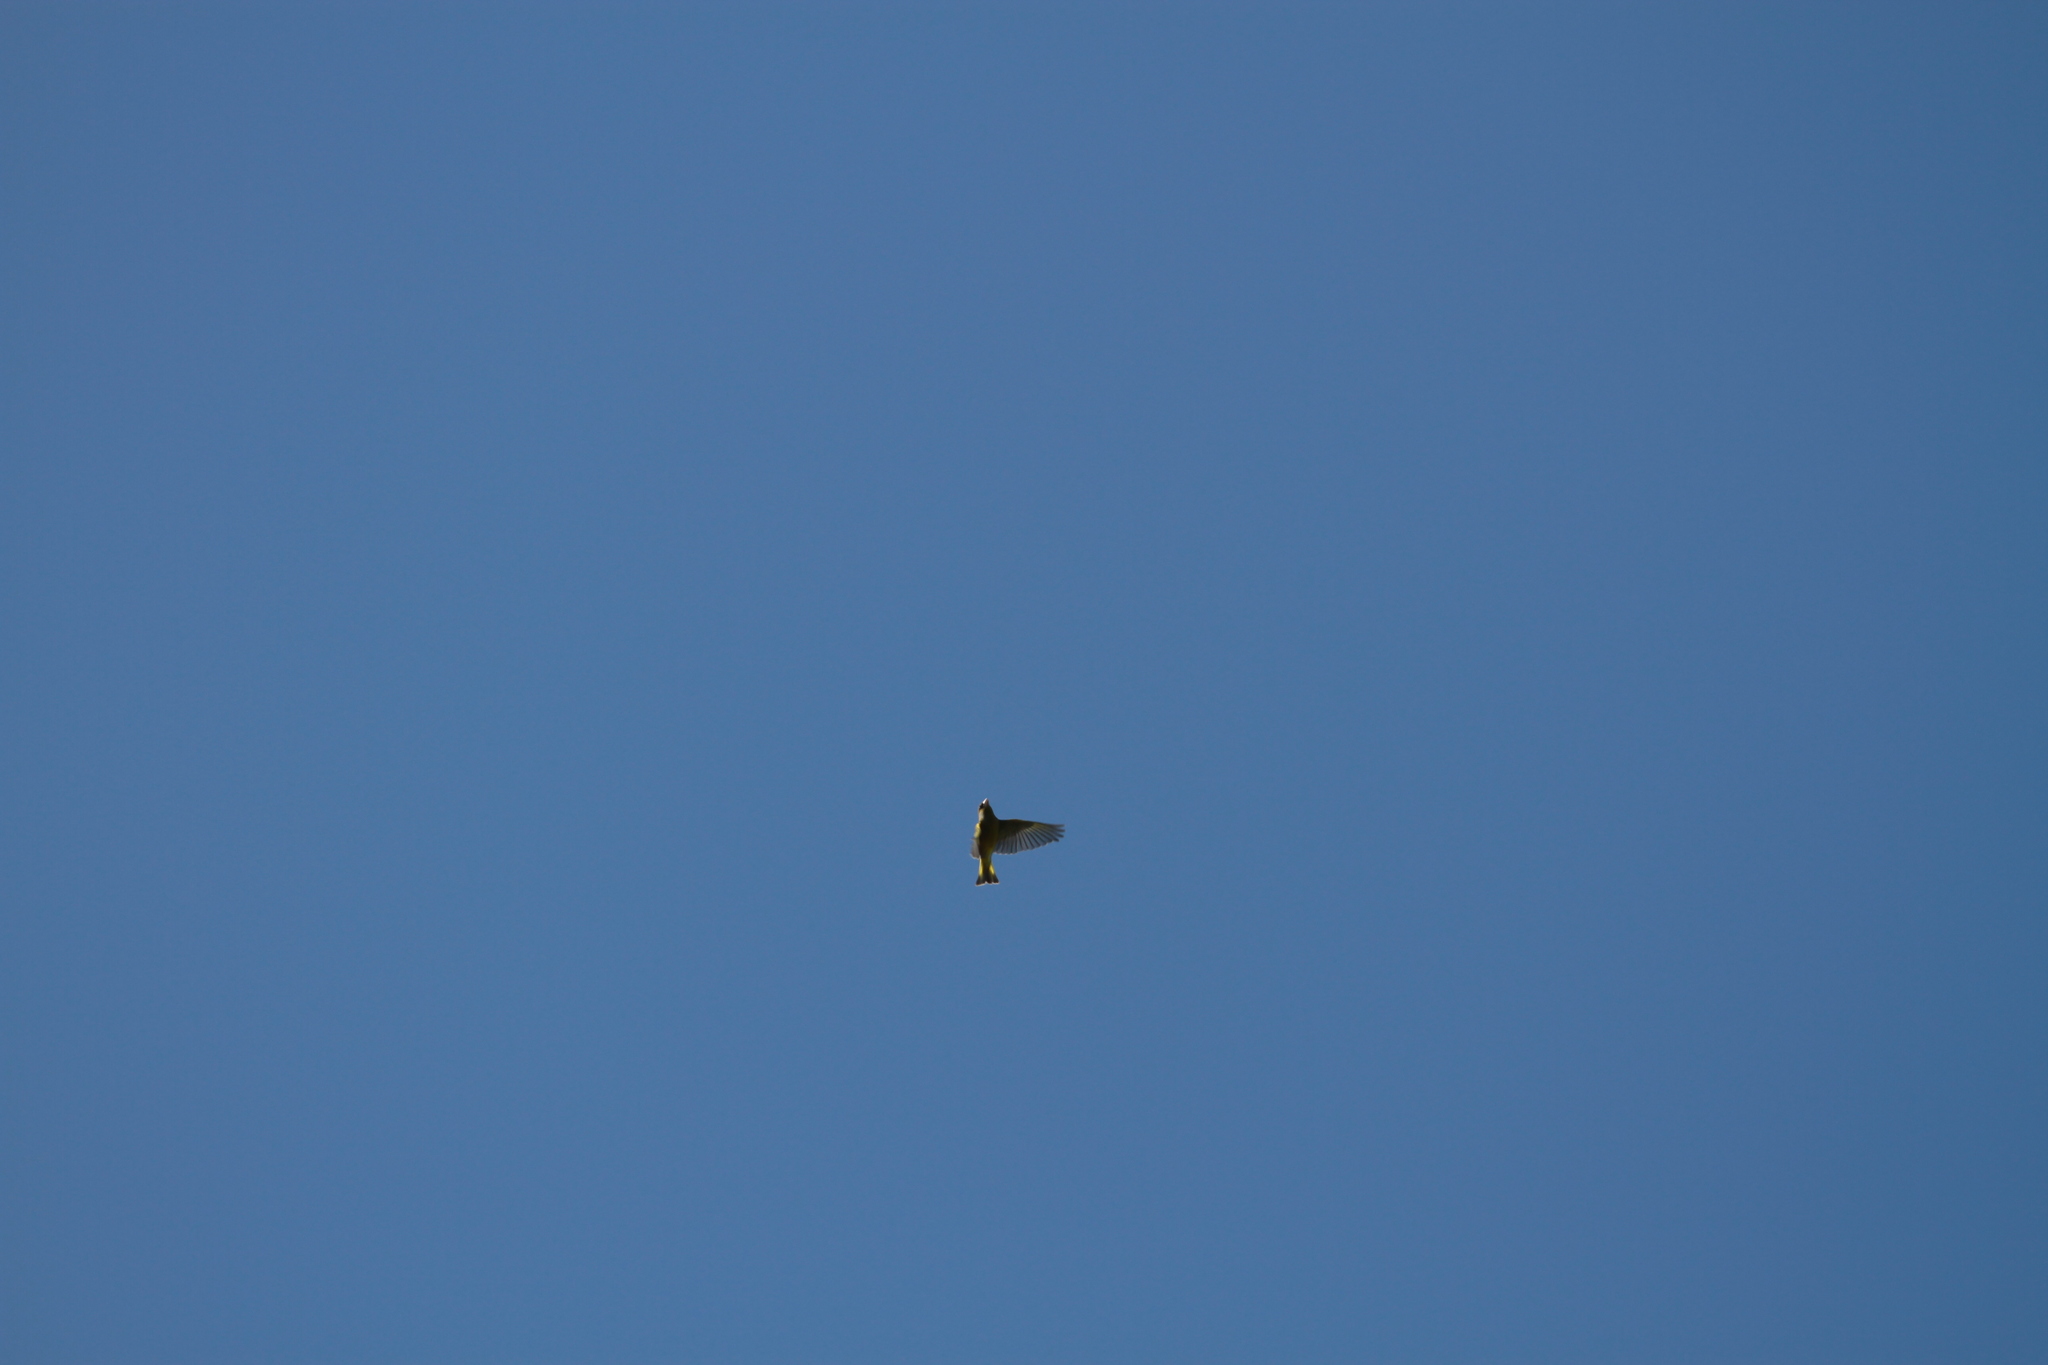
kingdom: Plantae
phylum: Tracheophyta
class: Liliopsida
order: Poales
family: Poaceae
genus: Chloris
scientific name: Chloris chloris
